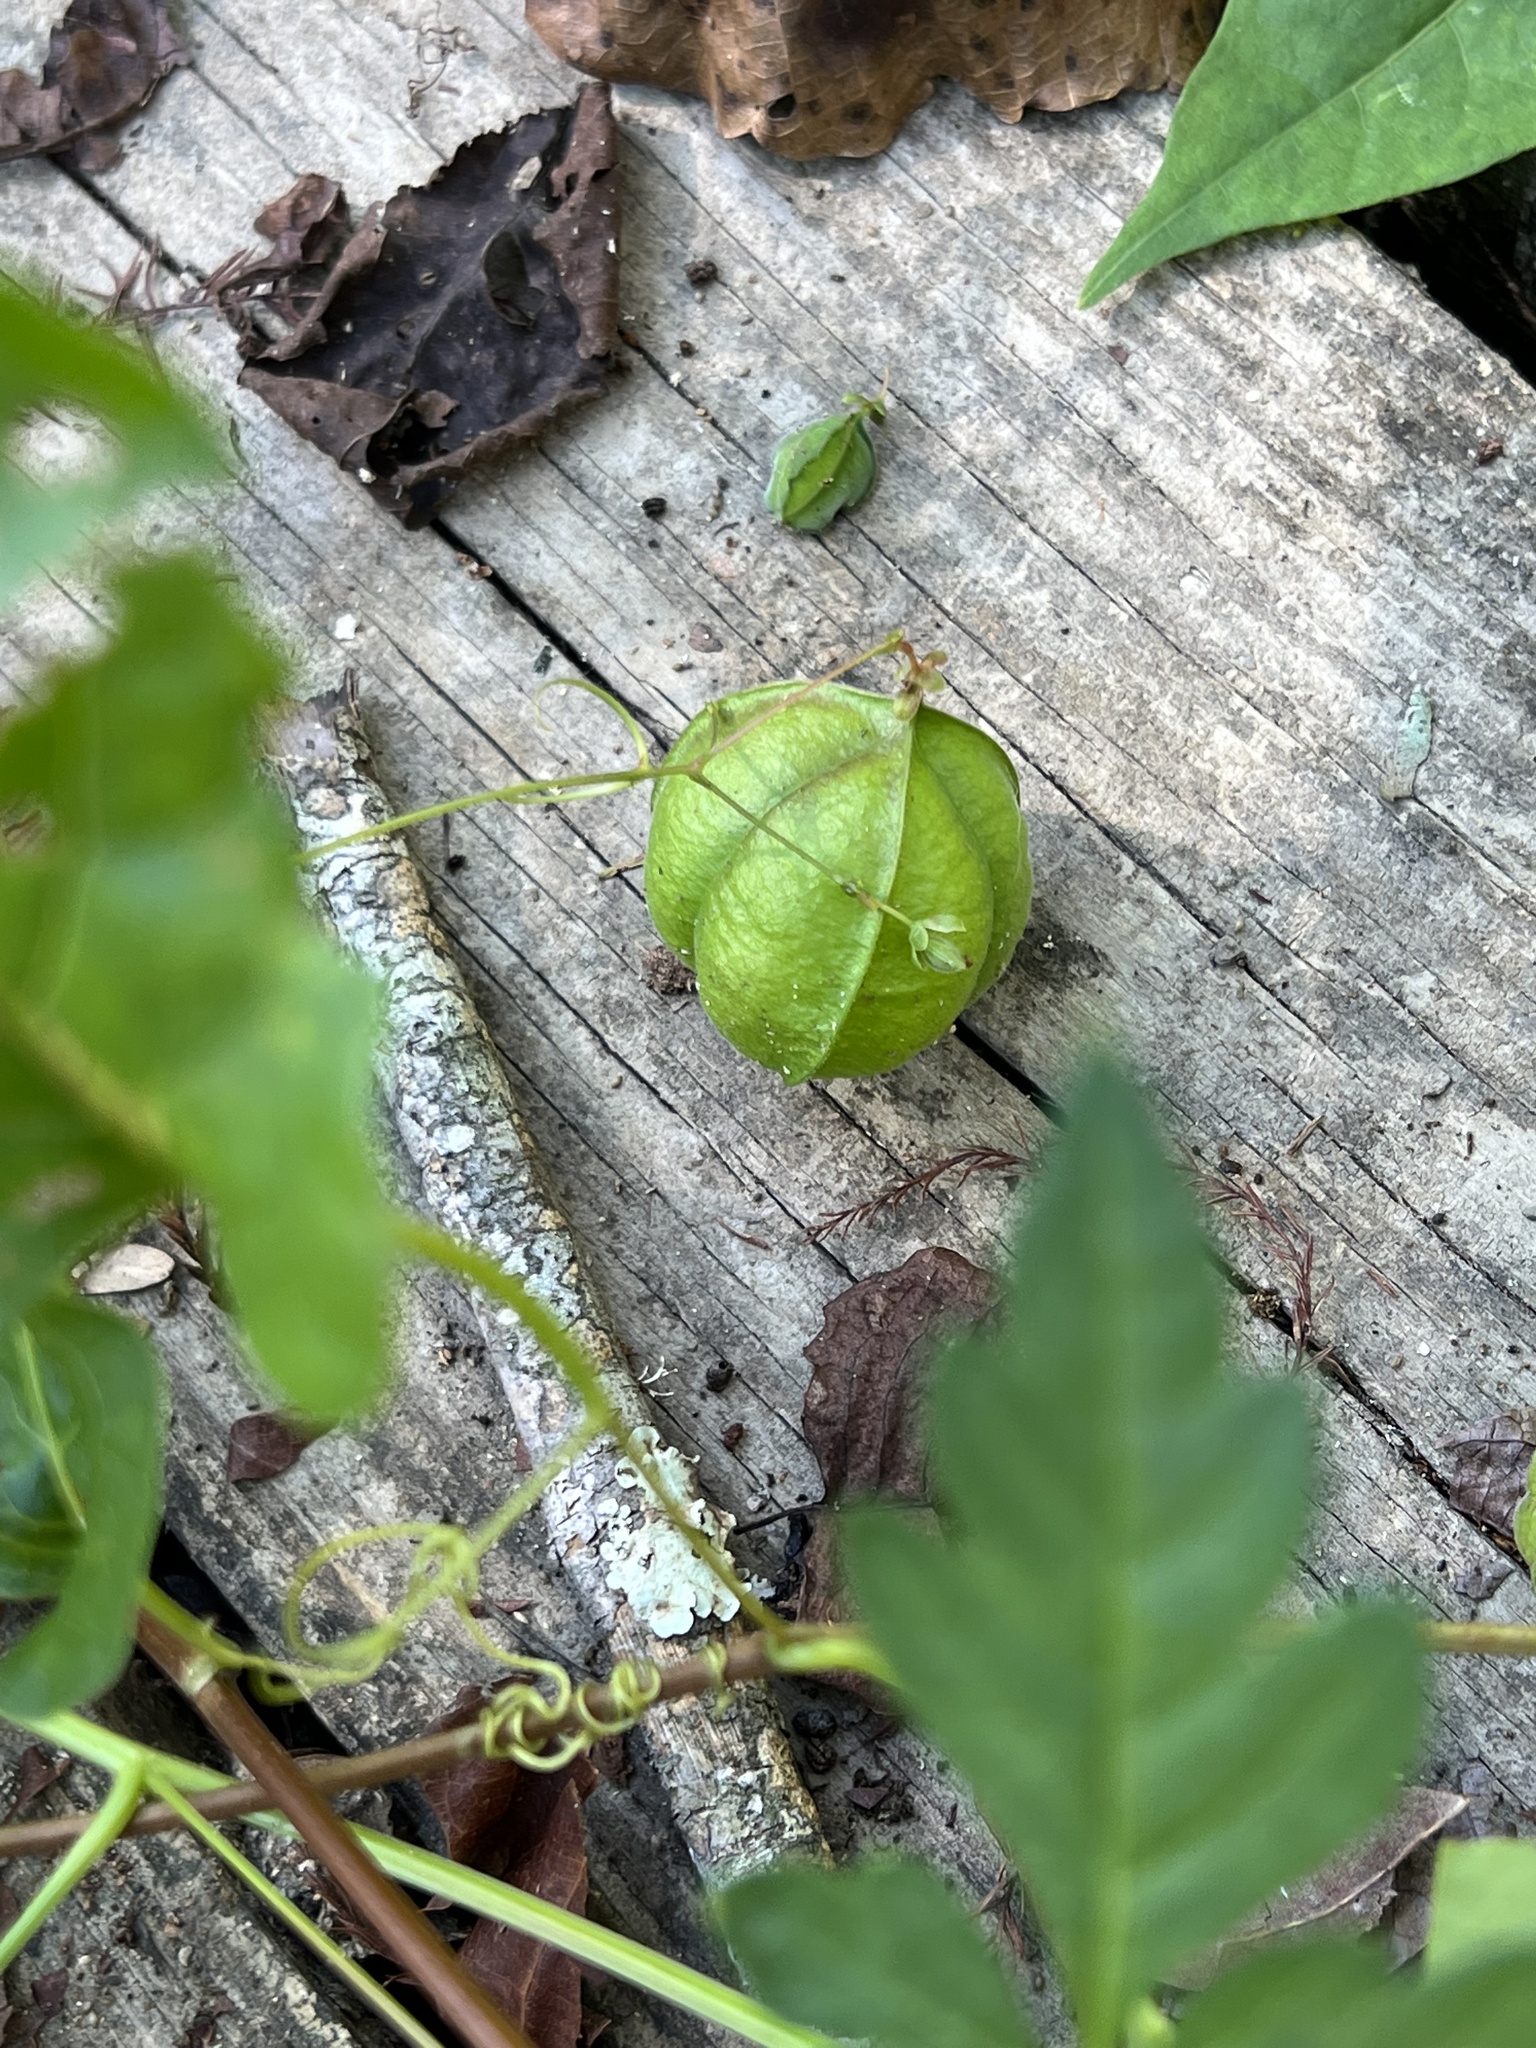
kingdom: Plantae
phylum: Tracheophyta
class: Magnoliopsida
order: Sapindales
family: Sapindaceae
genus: Cardiospermum
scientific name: Cardiospermum halicacabum
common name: Balloon vine
